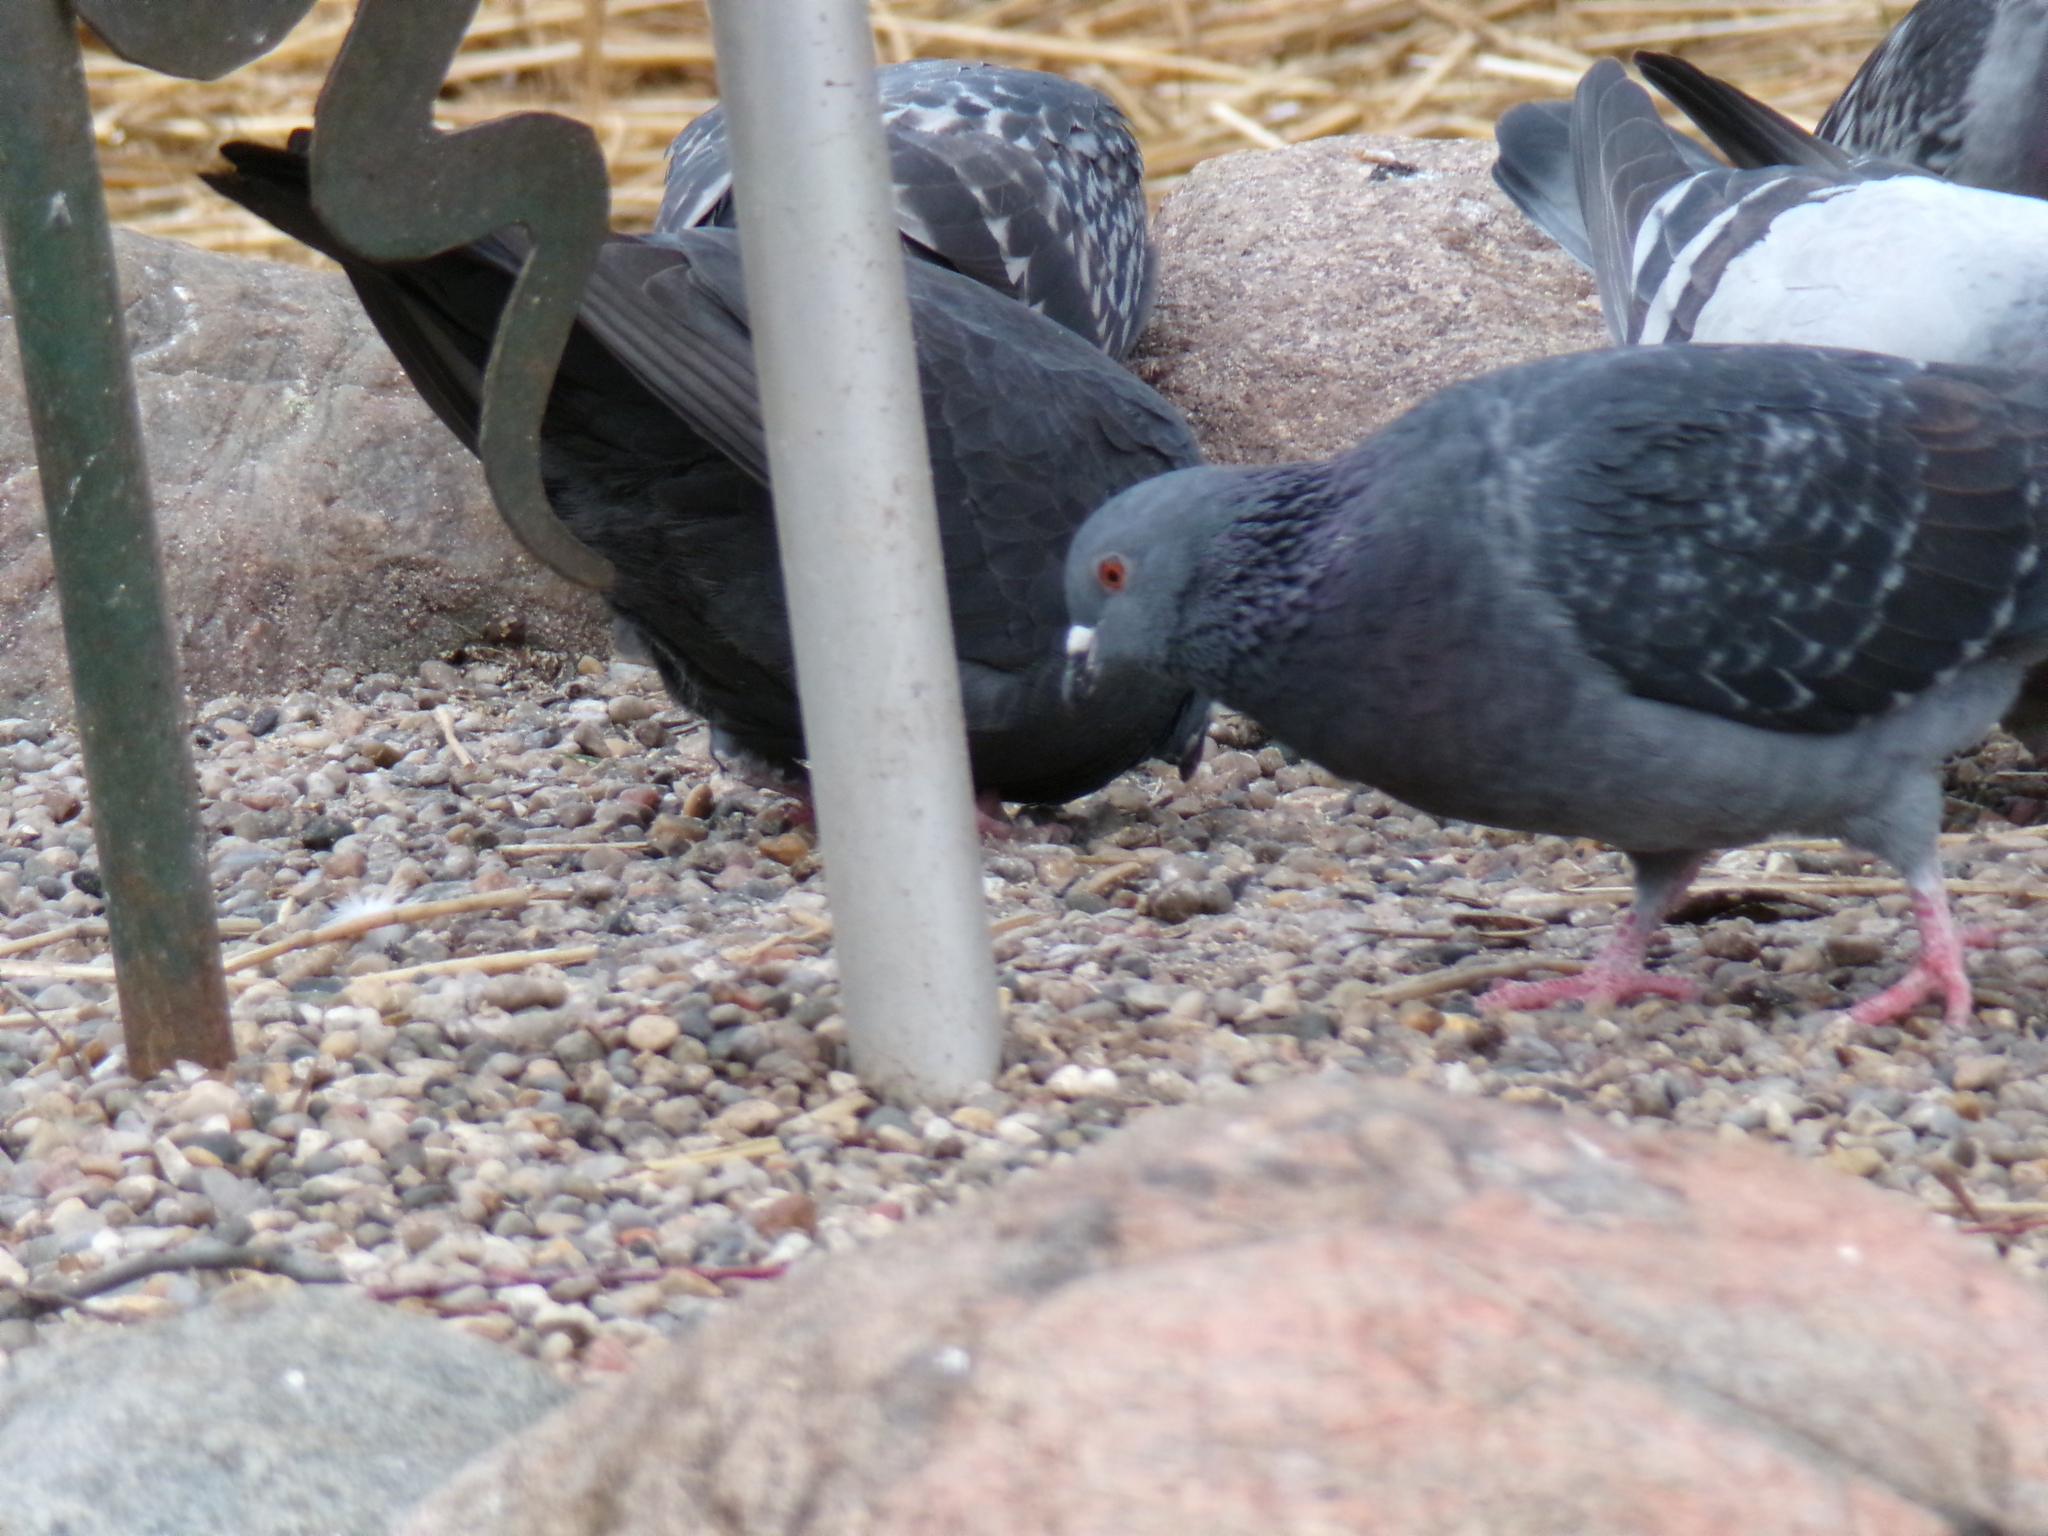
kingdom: Animalia
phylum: Chordata
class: Aves
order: Columbiformes
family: Columbidae
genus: Columba
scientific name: Columba livia
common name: Rock pigeon
